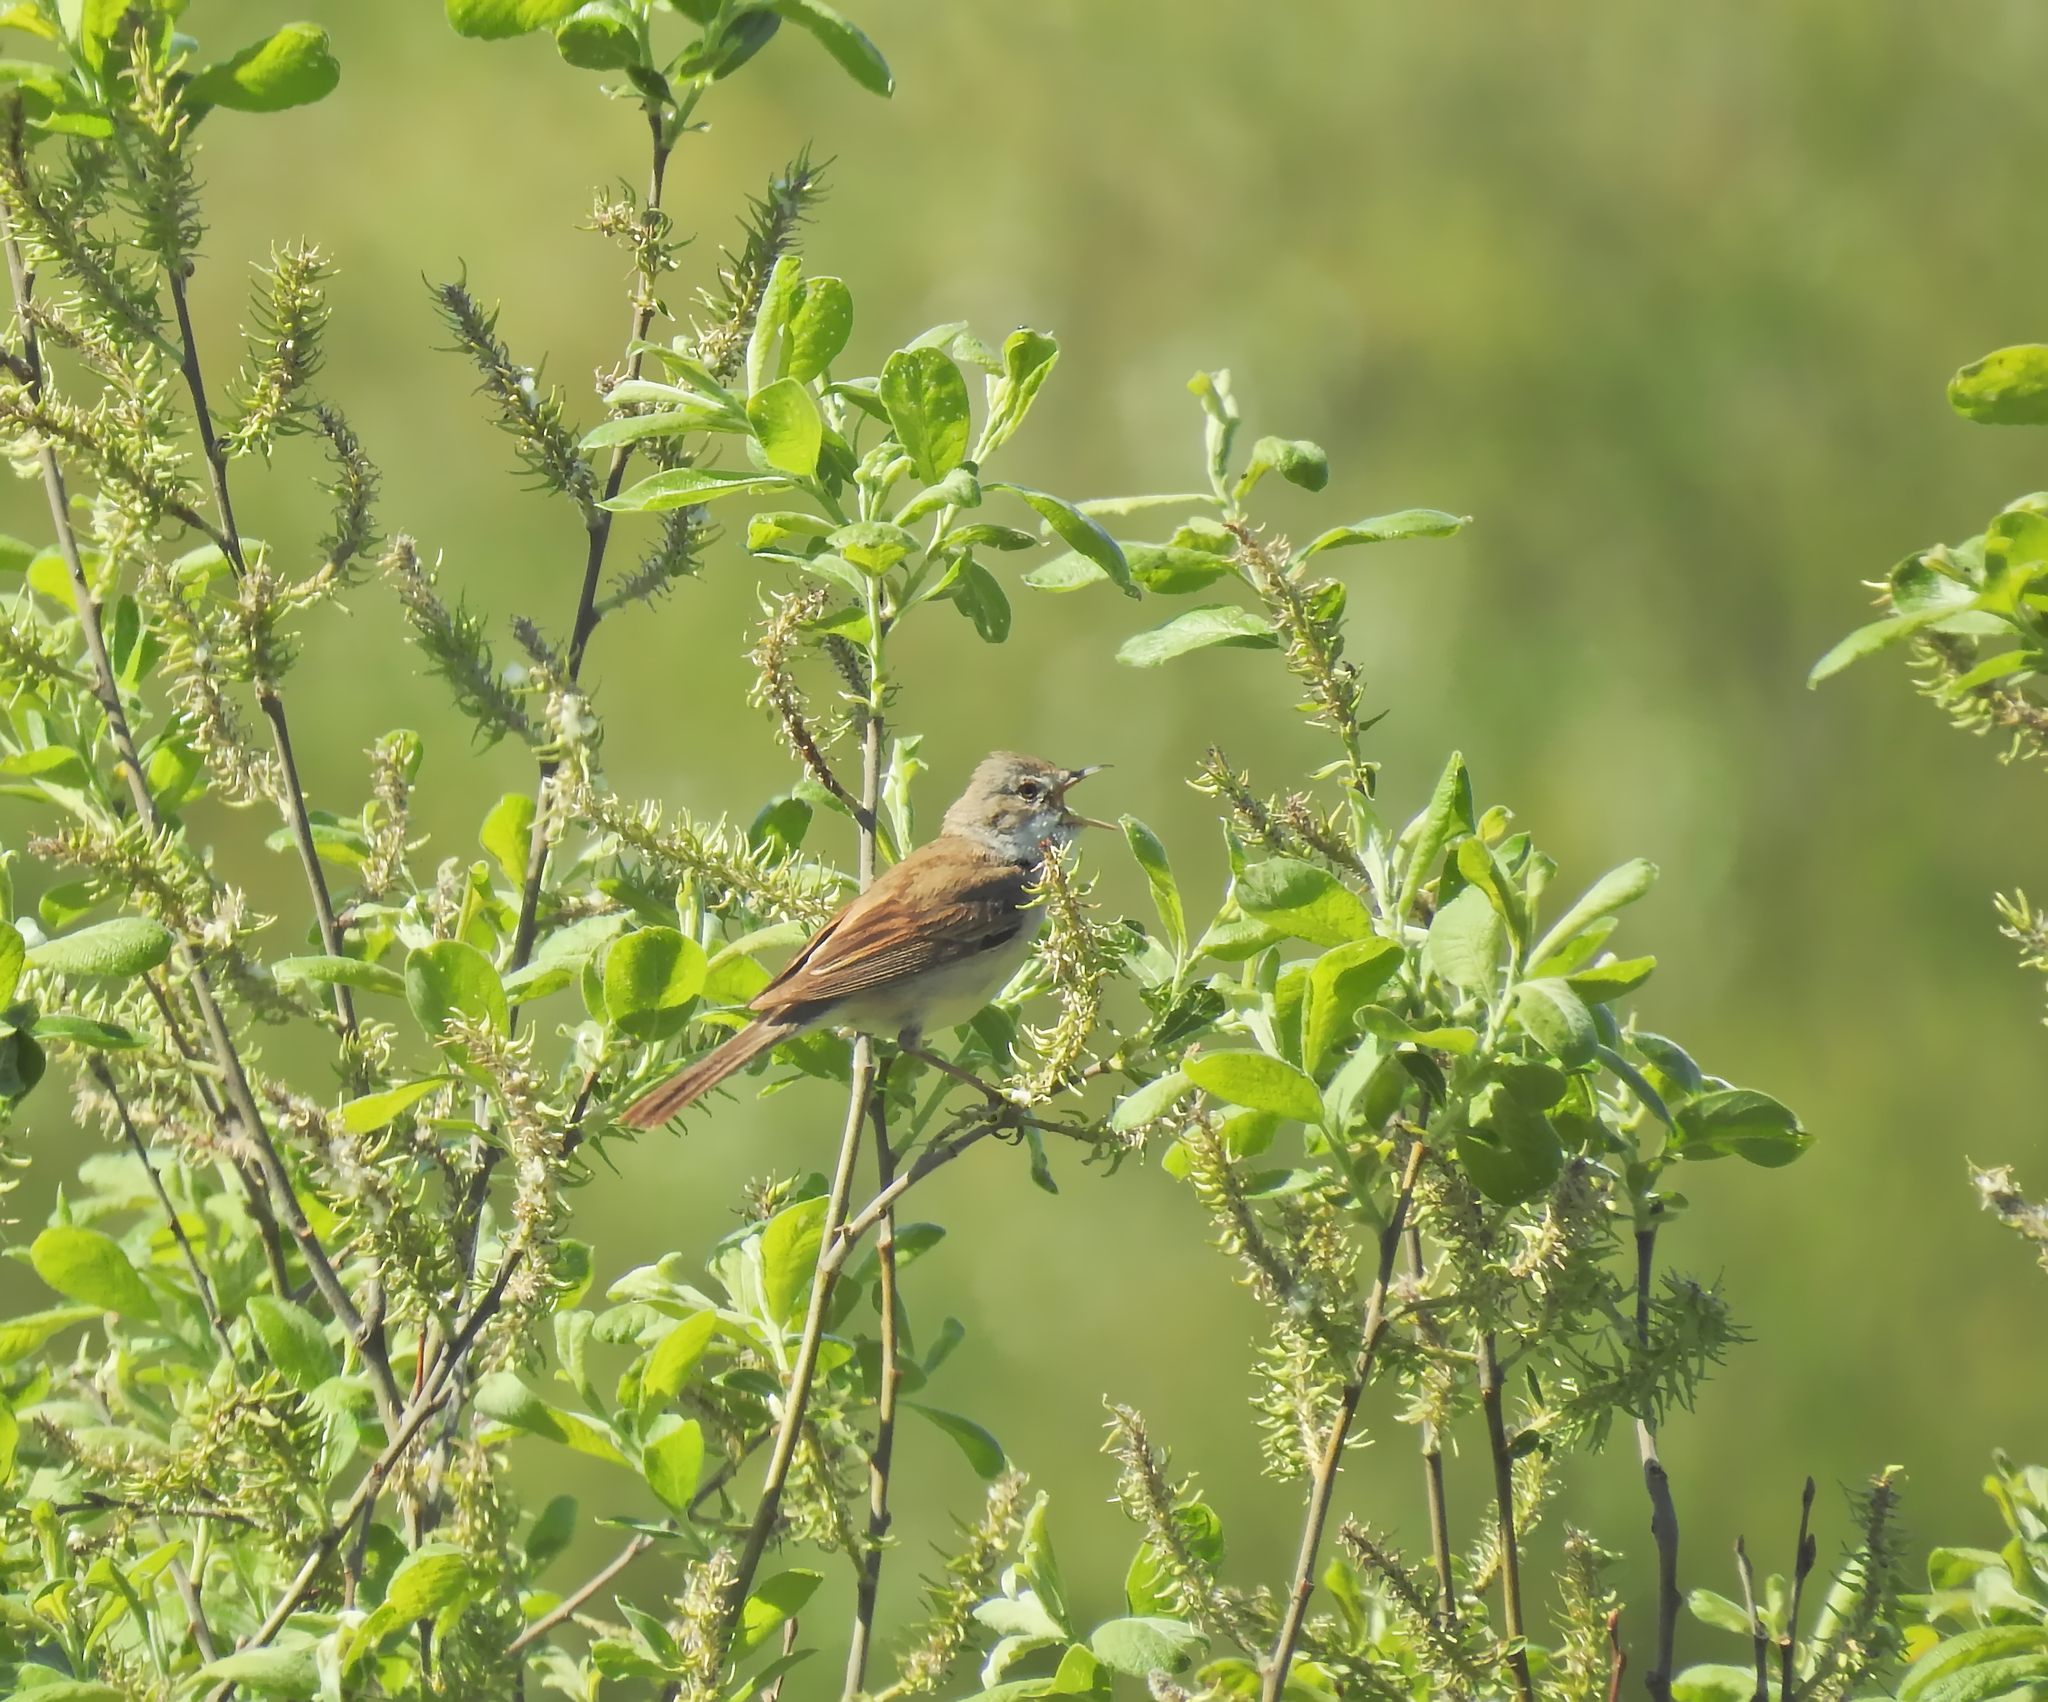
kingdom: Animalia
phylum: Chordata
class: Aves
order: Passeriformes
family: Sylviidae
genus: Sylvia
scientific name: Sylvia communis
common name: Common whitethroat
